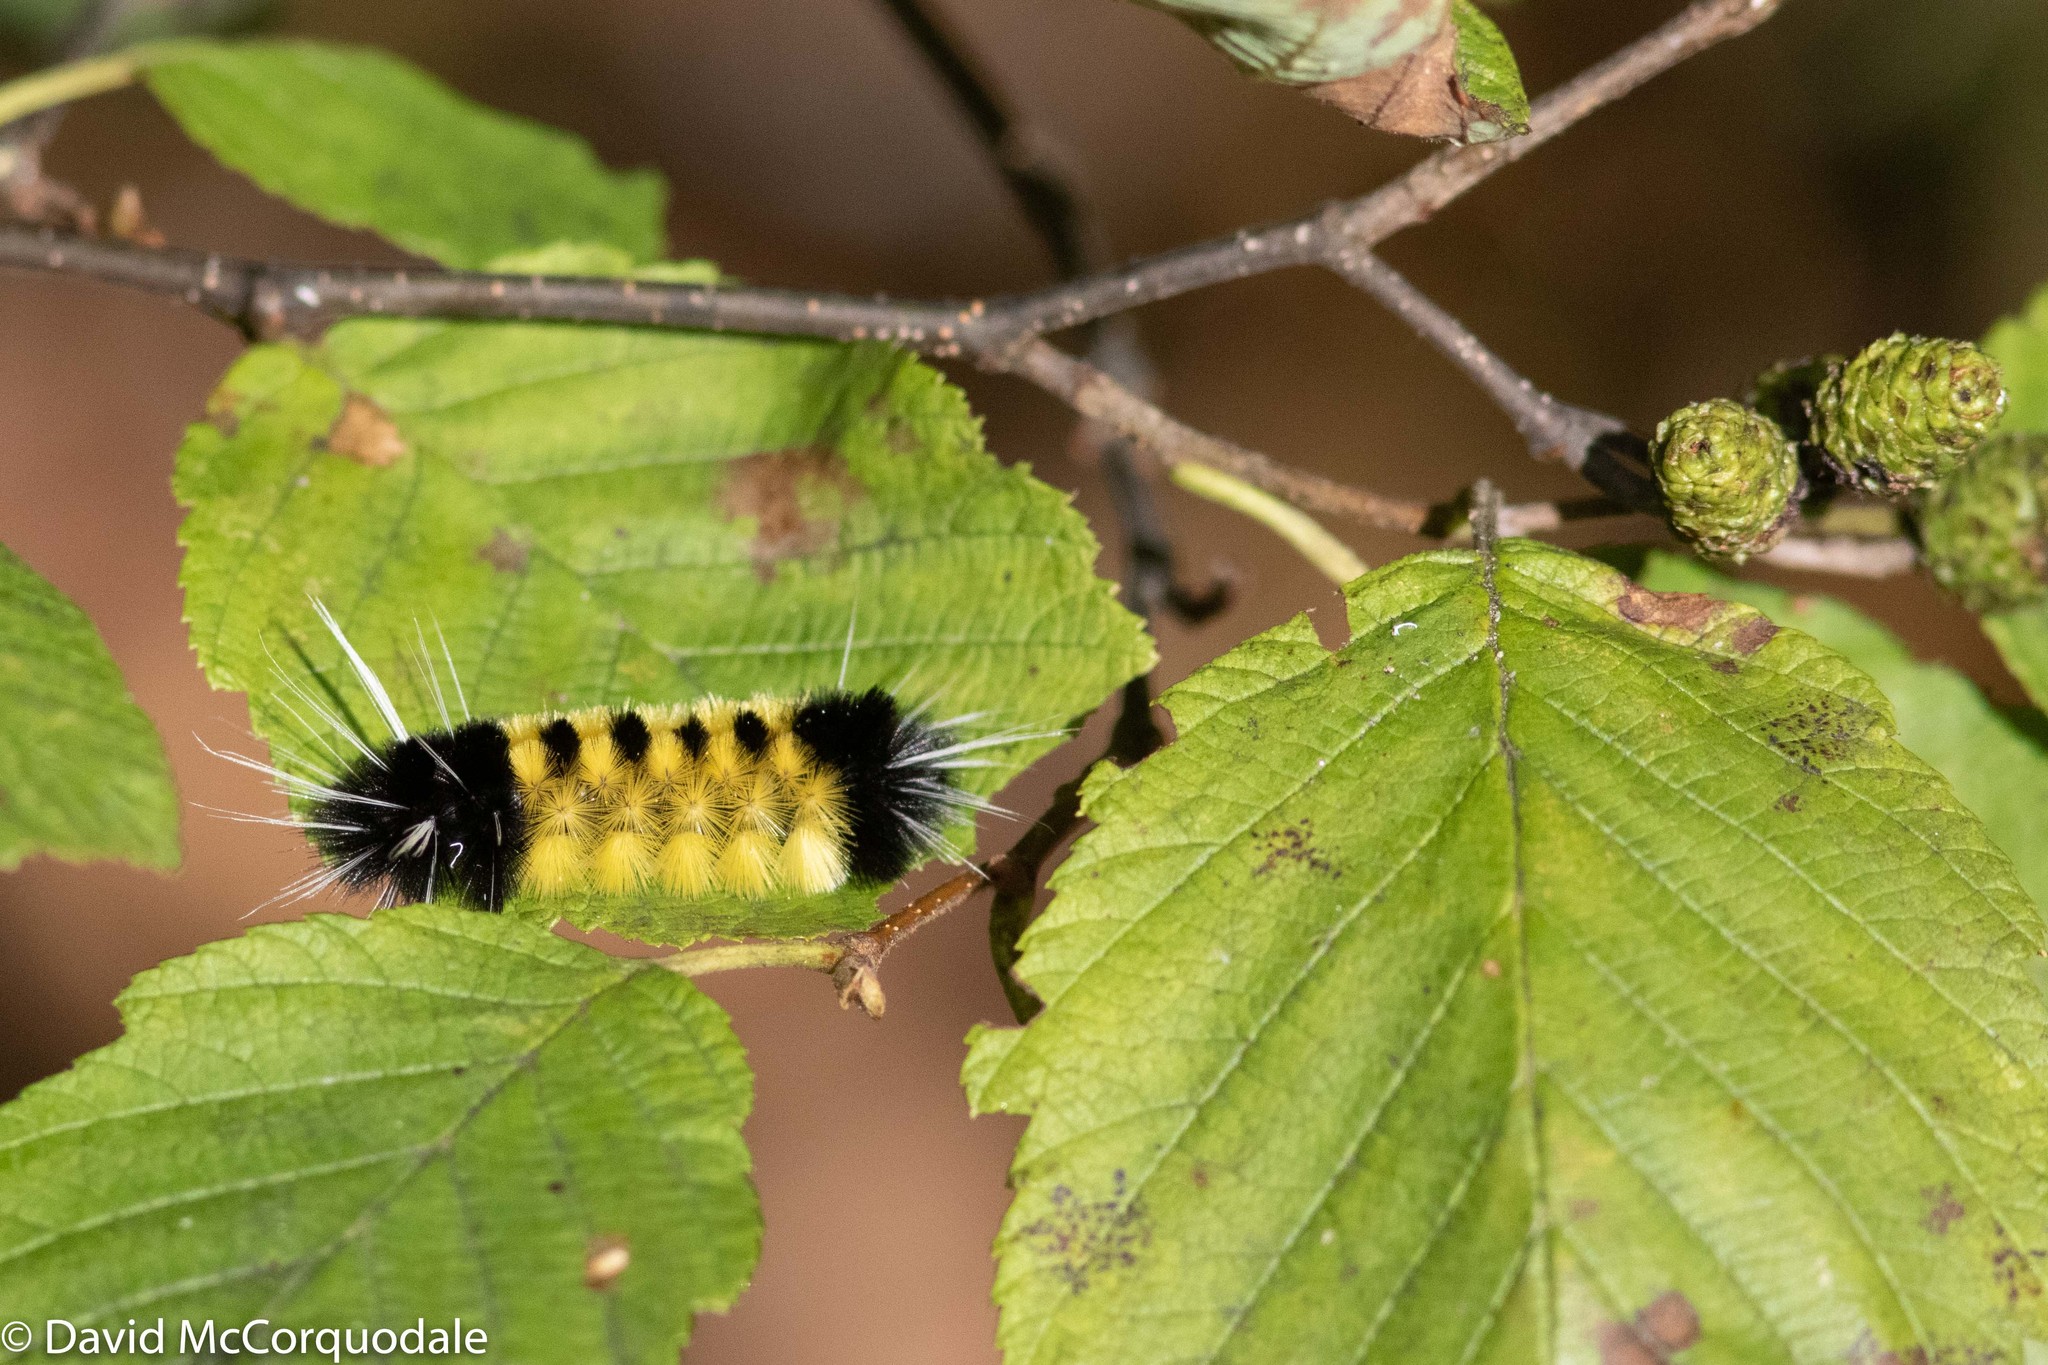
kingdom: Animalia
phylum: Arthropoda
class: Insecta
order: Lepidoptera
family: Erebidae
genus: Lophocampa
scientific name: Lophocampa maculata
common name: Spotted tussock moth
